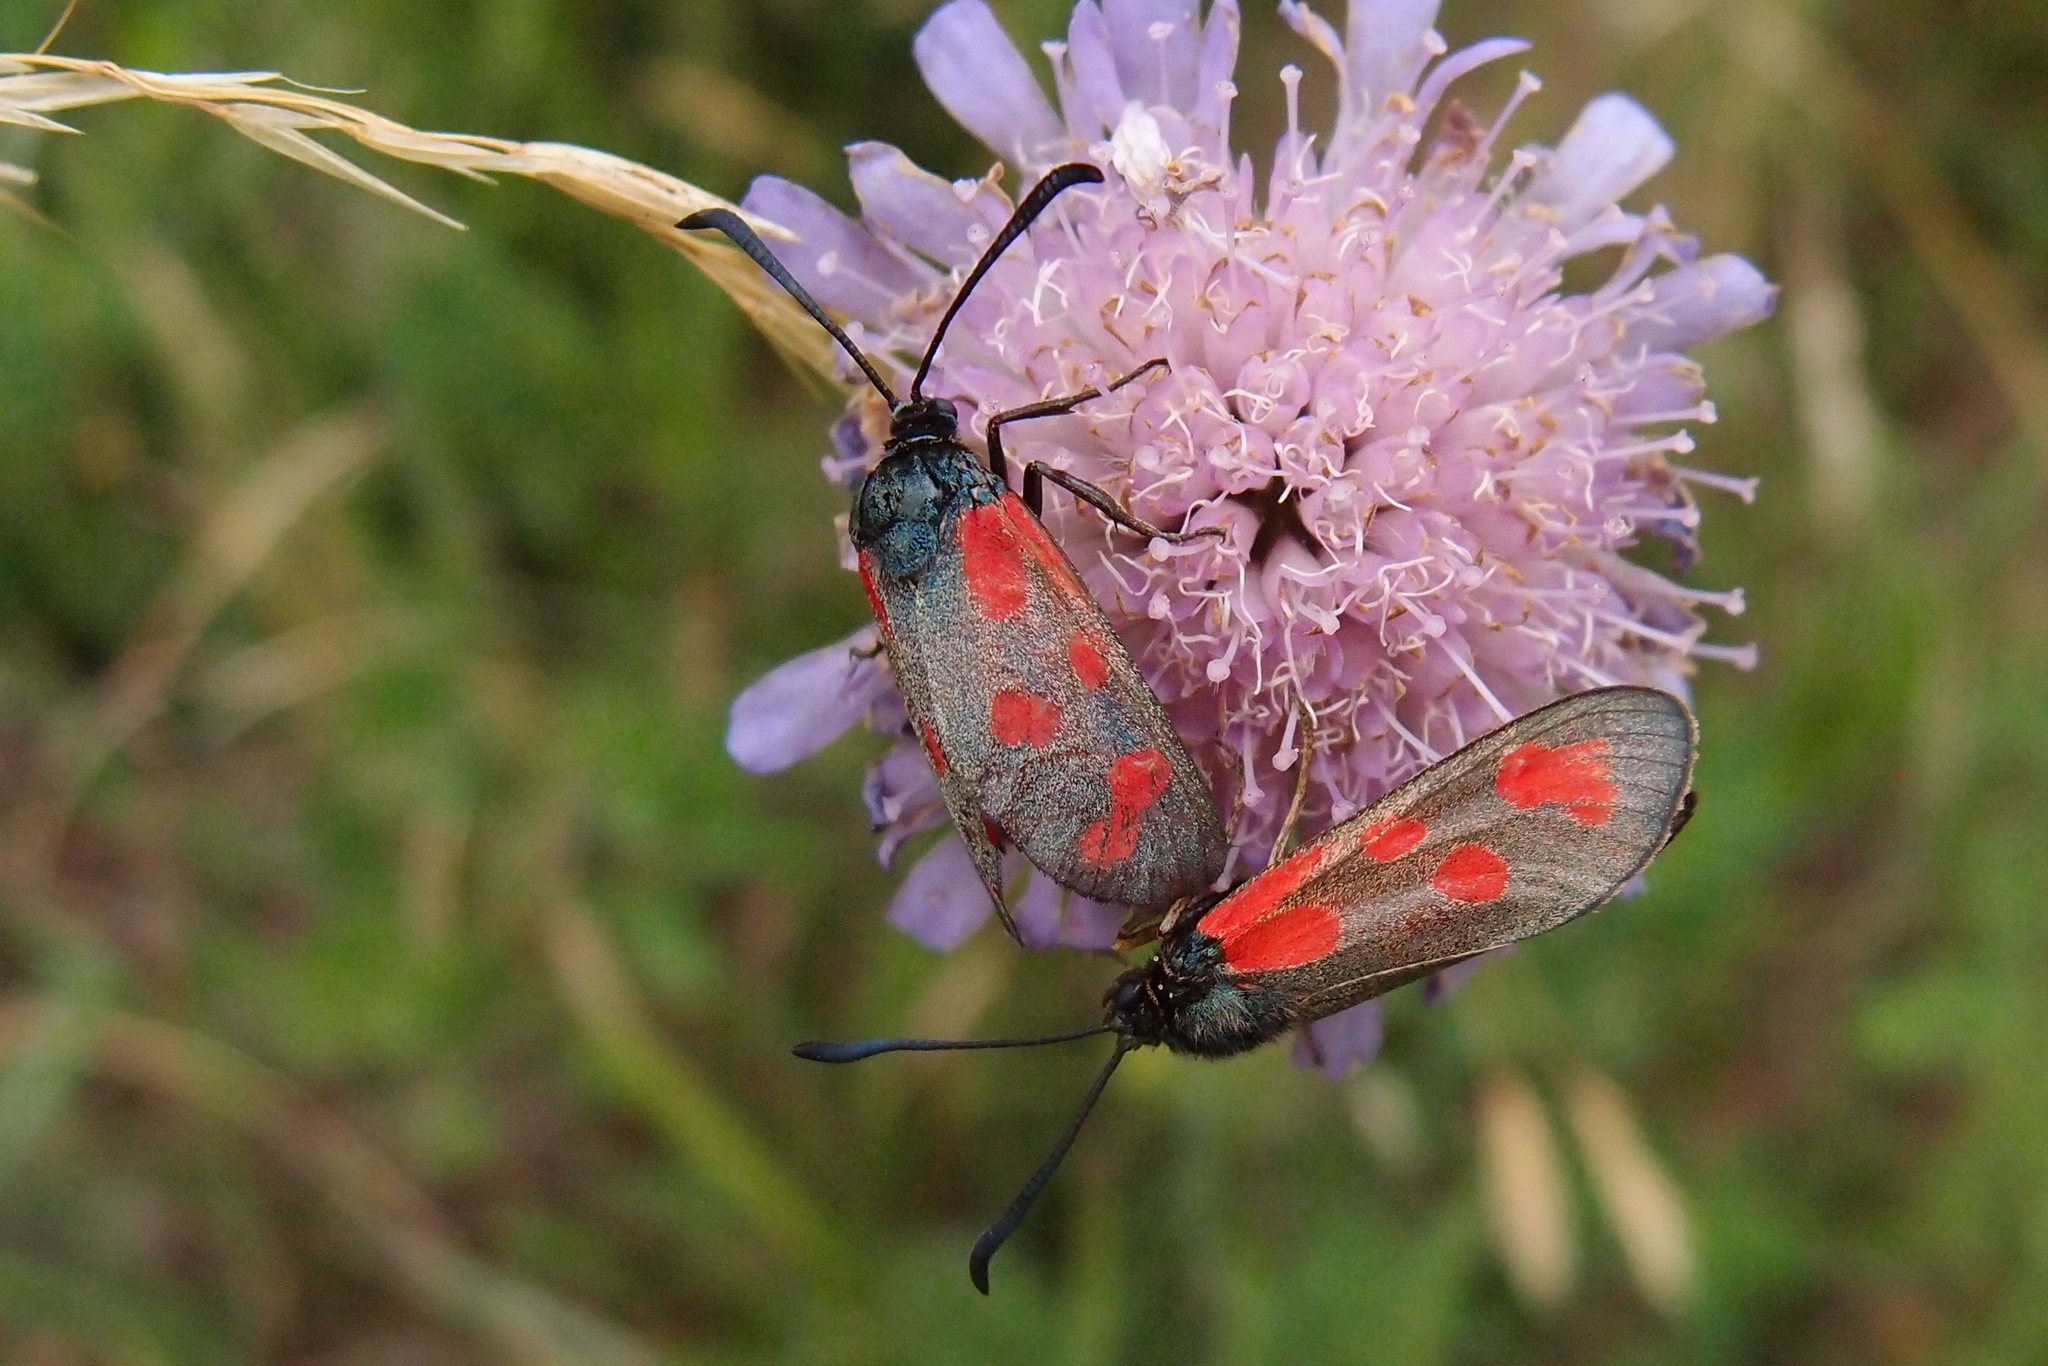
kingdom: Animalia
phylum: Arthropoda
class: Insecta
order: Lepidoptera
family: Zygaenidae
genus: Zygaena
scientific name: Zygaena loti
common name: Slender scotch burnet
